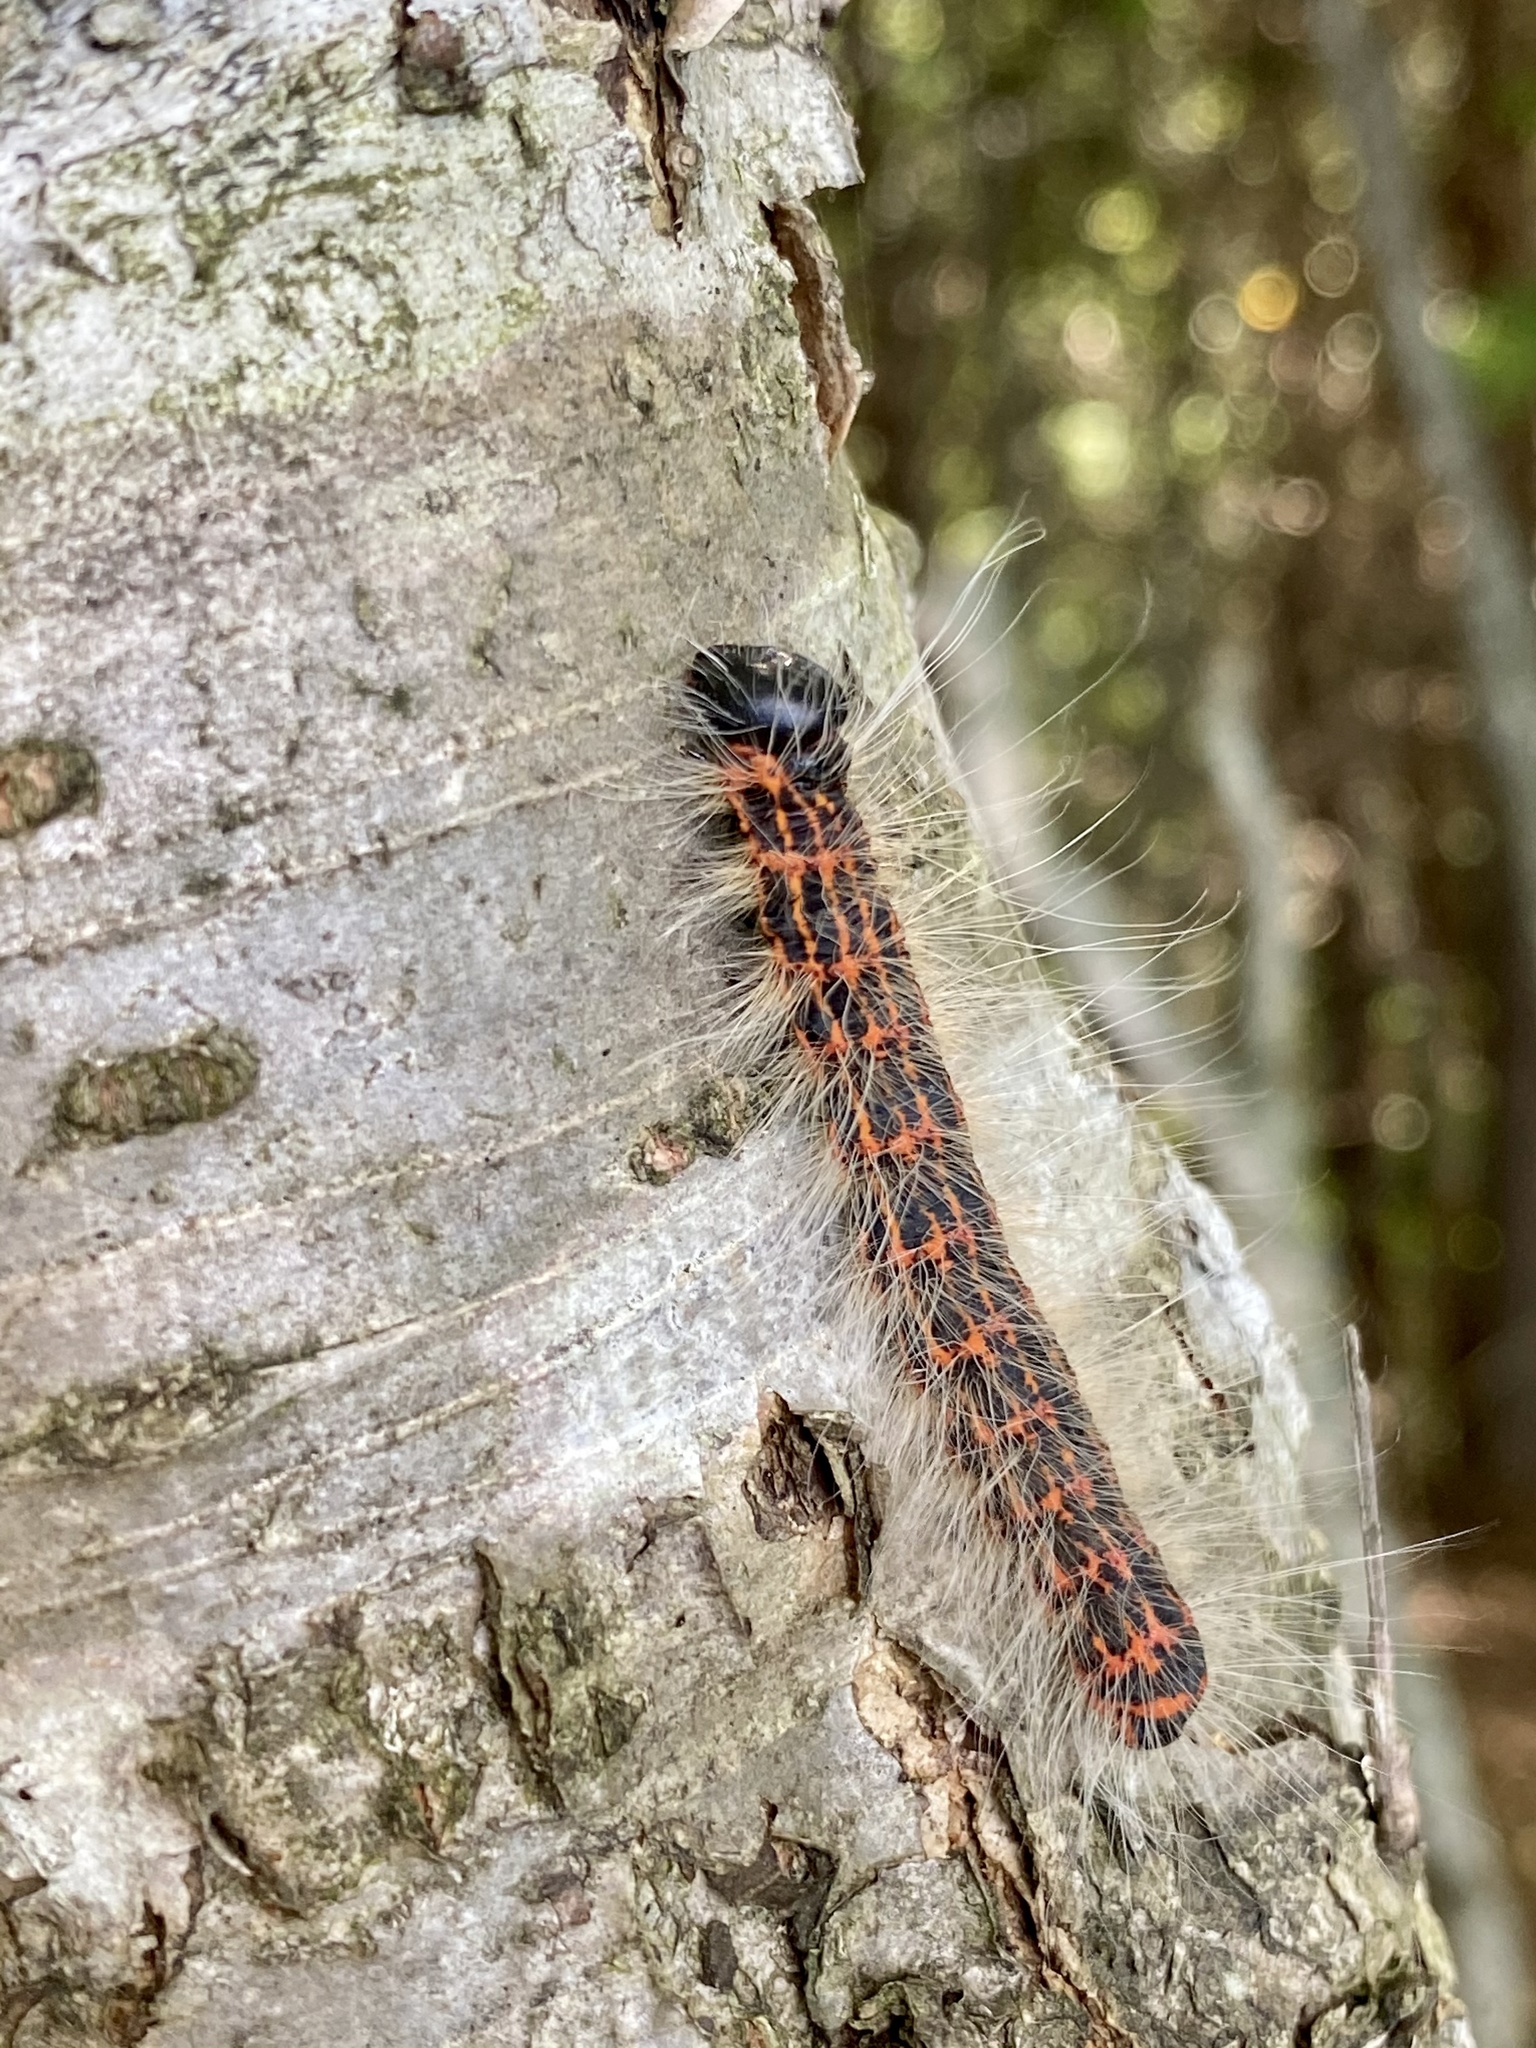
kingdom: Animalia
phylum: Arthropoda
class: Insecta
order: Lepidoptera
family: Notodontidae
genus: Phalera
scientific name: Phalera assimilis
